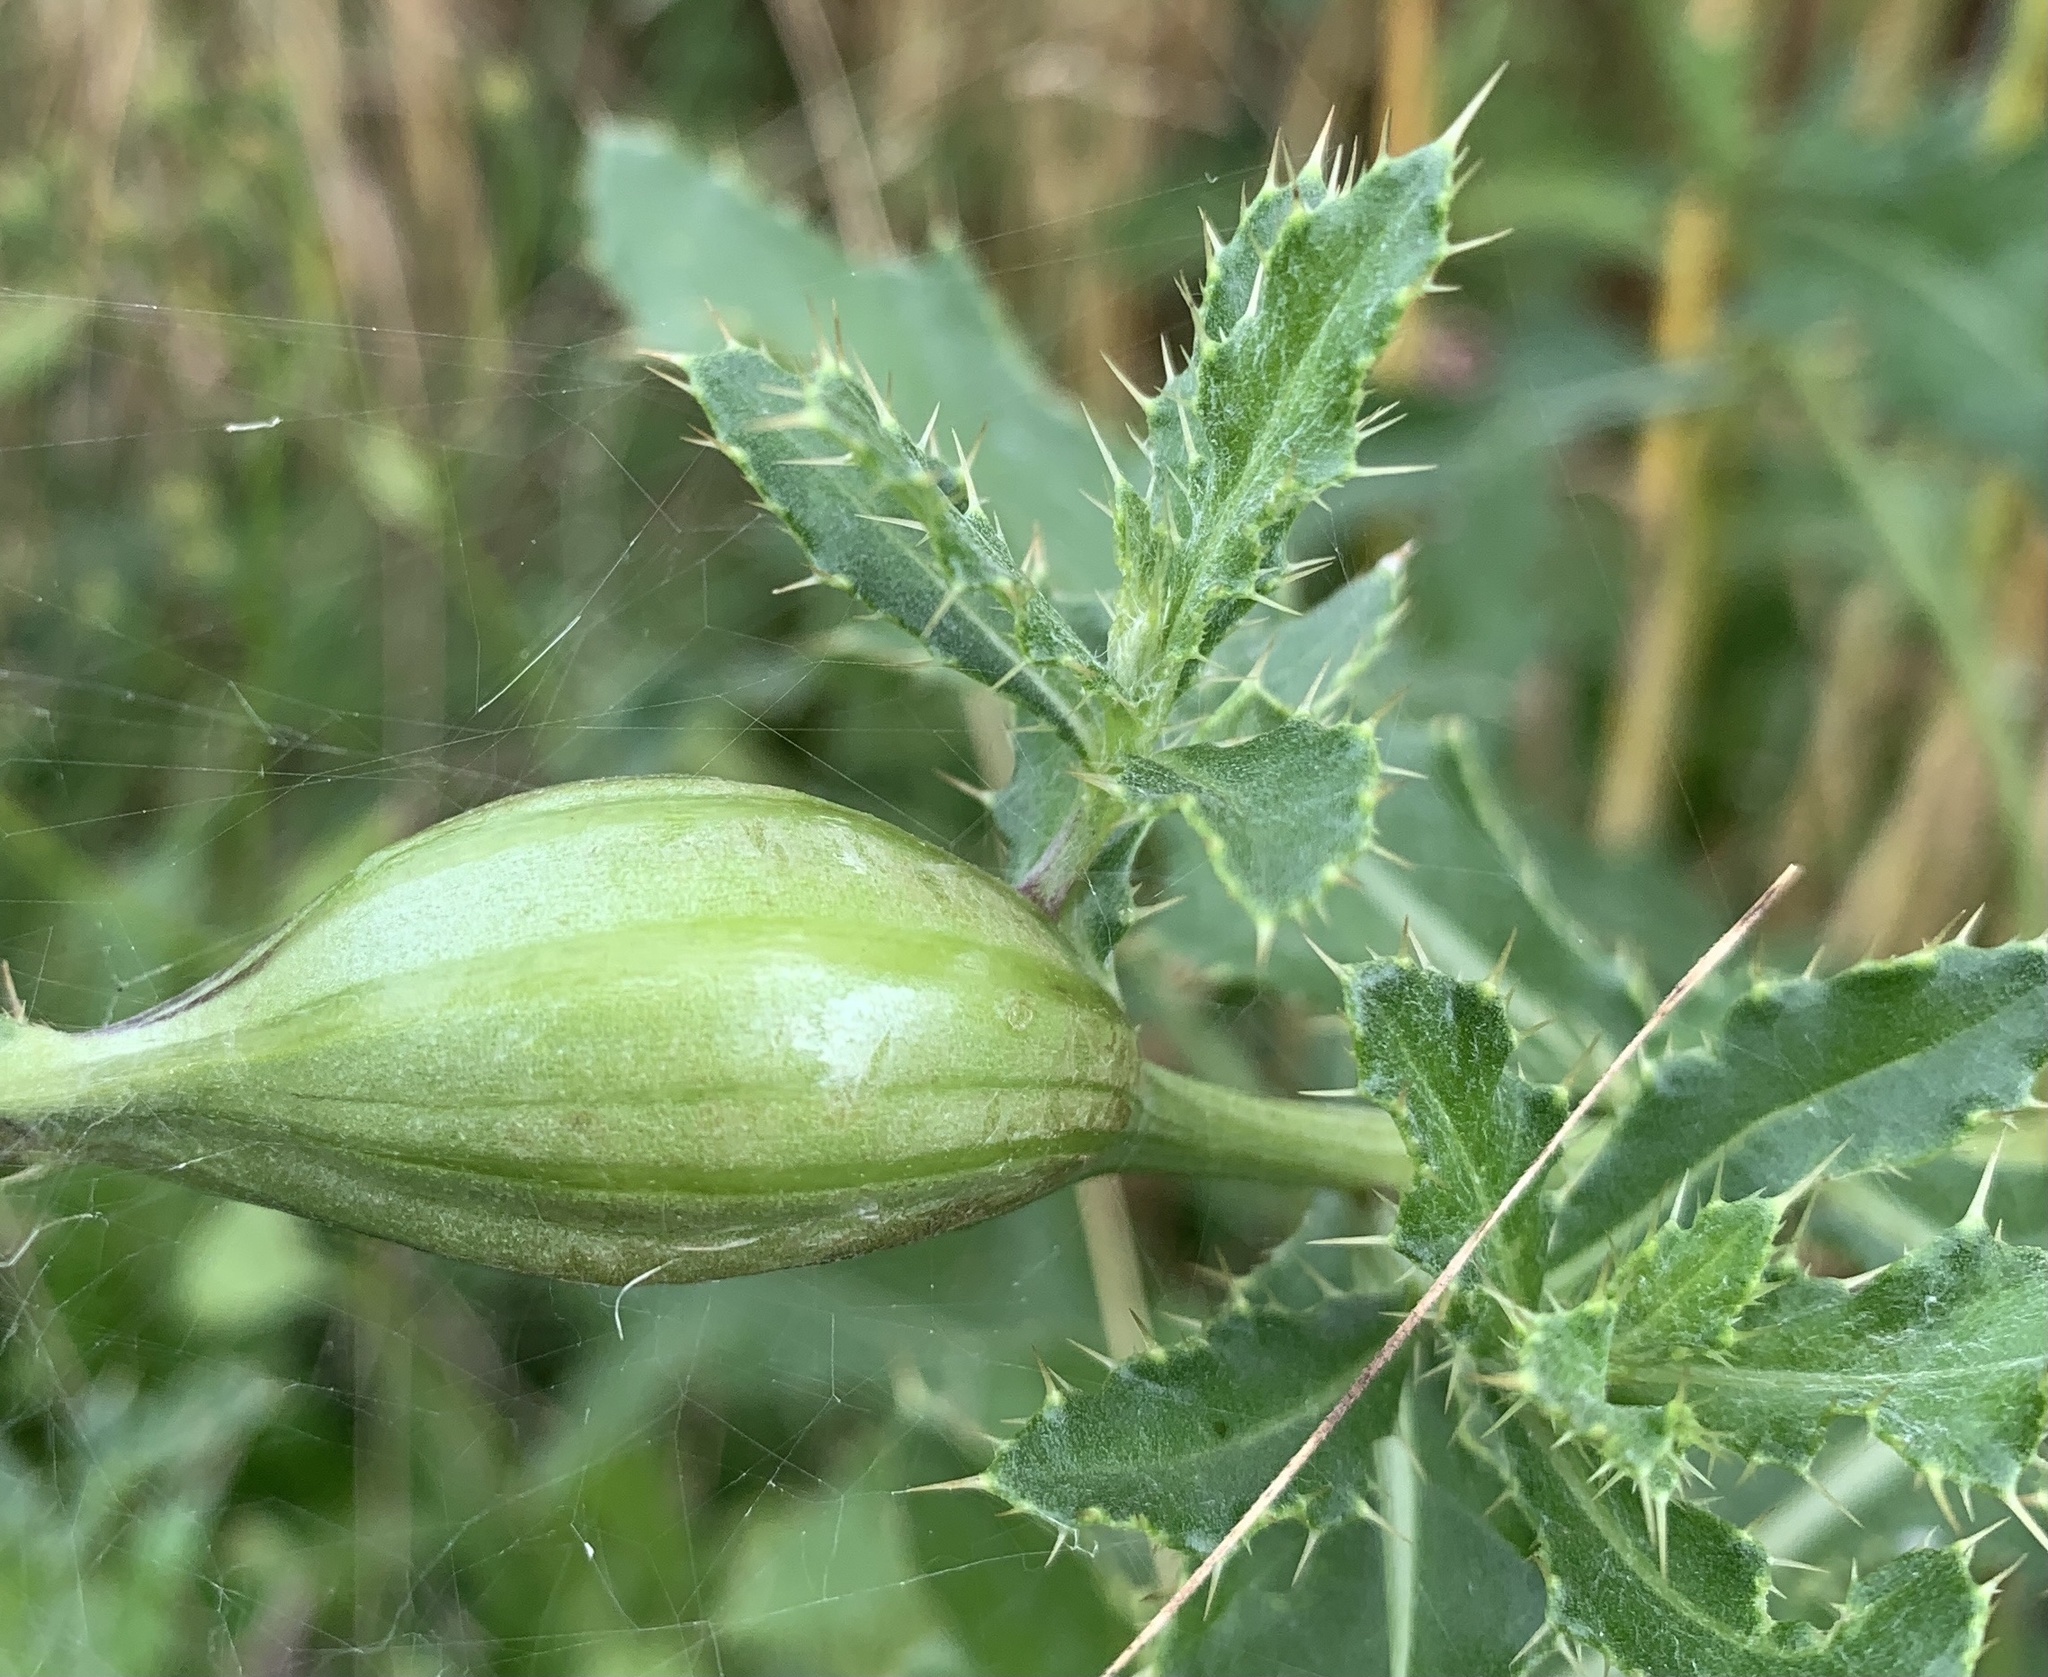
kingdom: Animalia
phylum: Arthropoda
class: Insecta
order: Diptera
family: Tephritidae
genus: Urophora
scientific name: Urophora cardui
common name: Fruit fly
